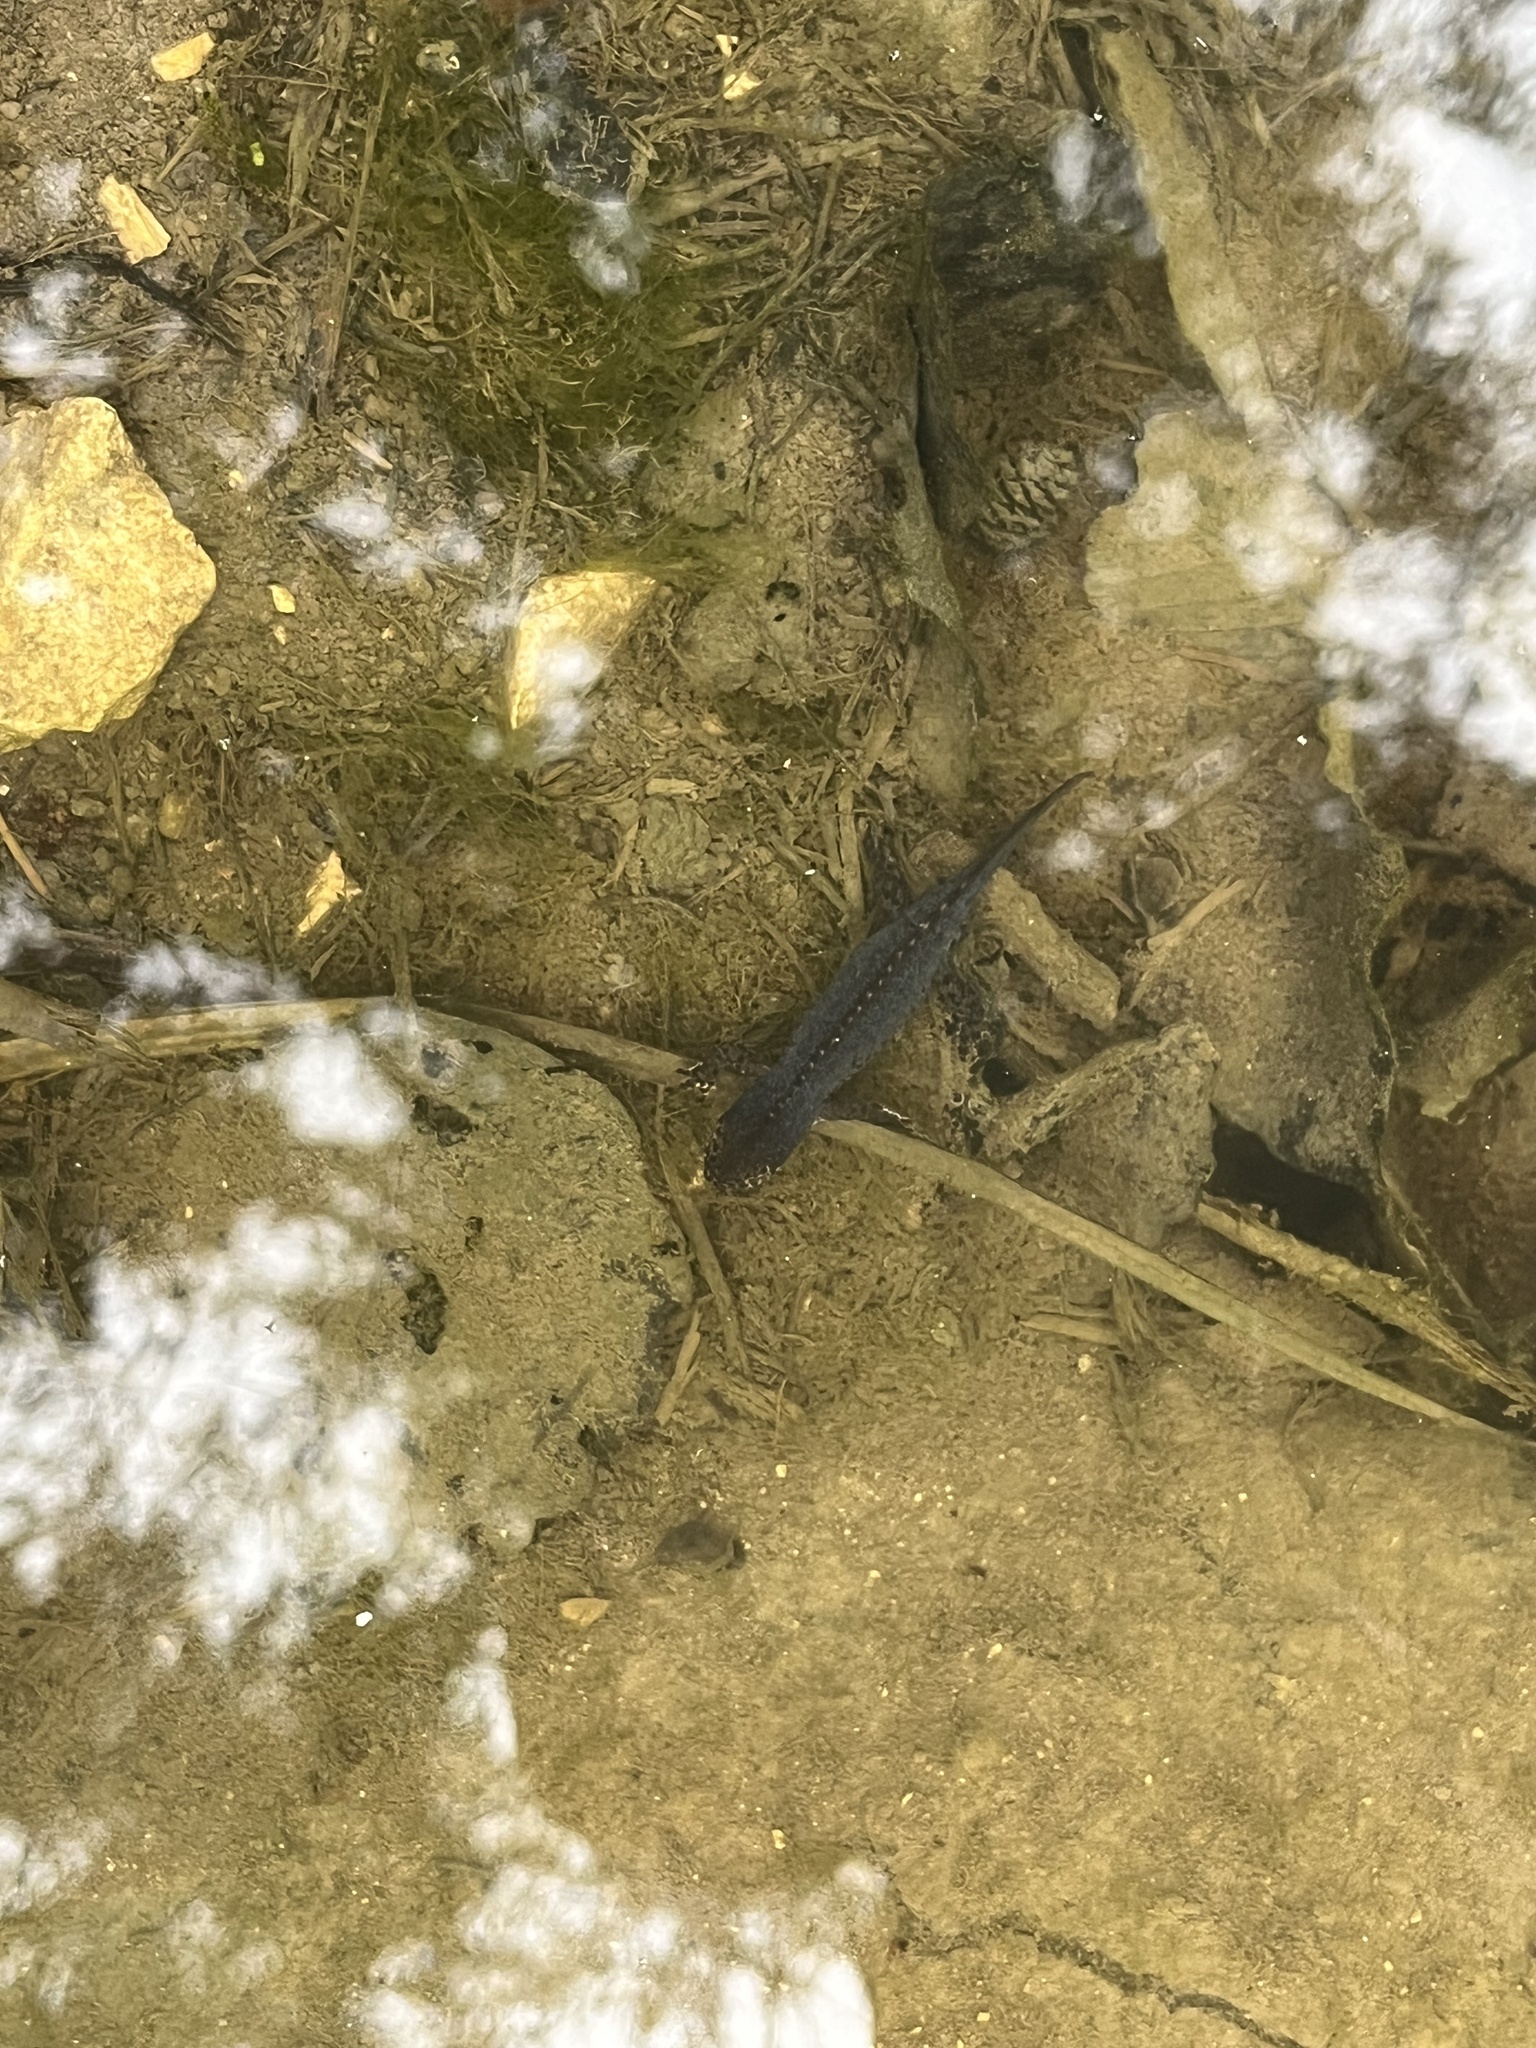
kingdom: Animalia
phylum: Chordata
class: Amphibia
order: Caudata
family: Salamandridae
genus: Ichthyosaura
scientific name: Ichthyosaura alpestris
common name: Alpine newt
